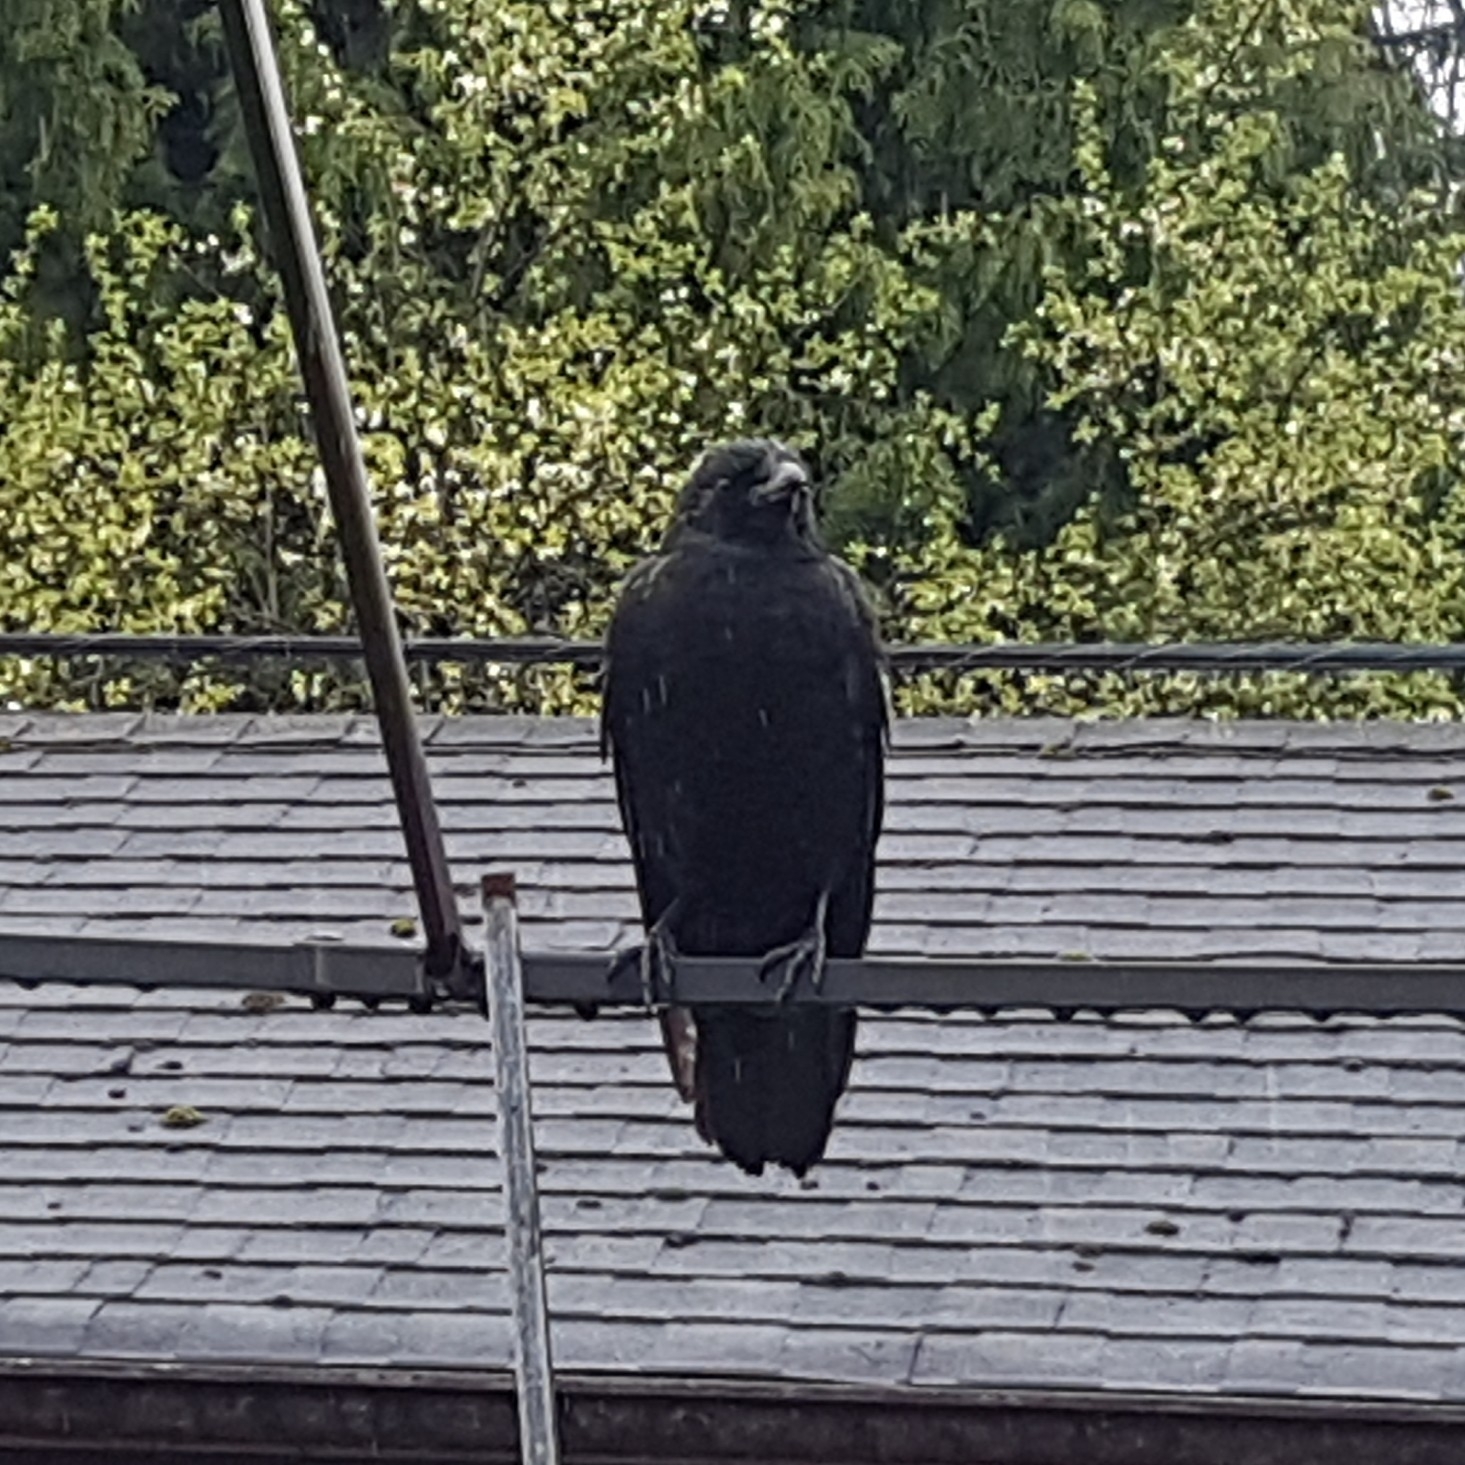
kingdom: Animalia
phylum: Chordata
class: Aves
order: Passeriformes
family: Corvidae
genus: Corvus
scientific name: Corvus brachyrhynchos
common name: American crow
